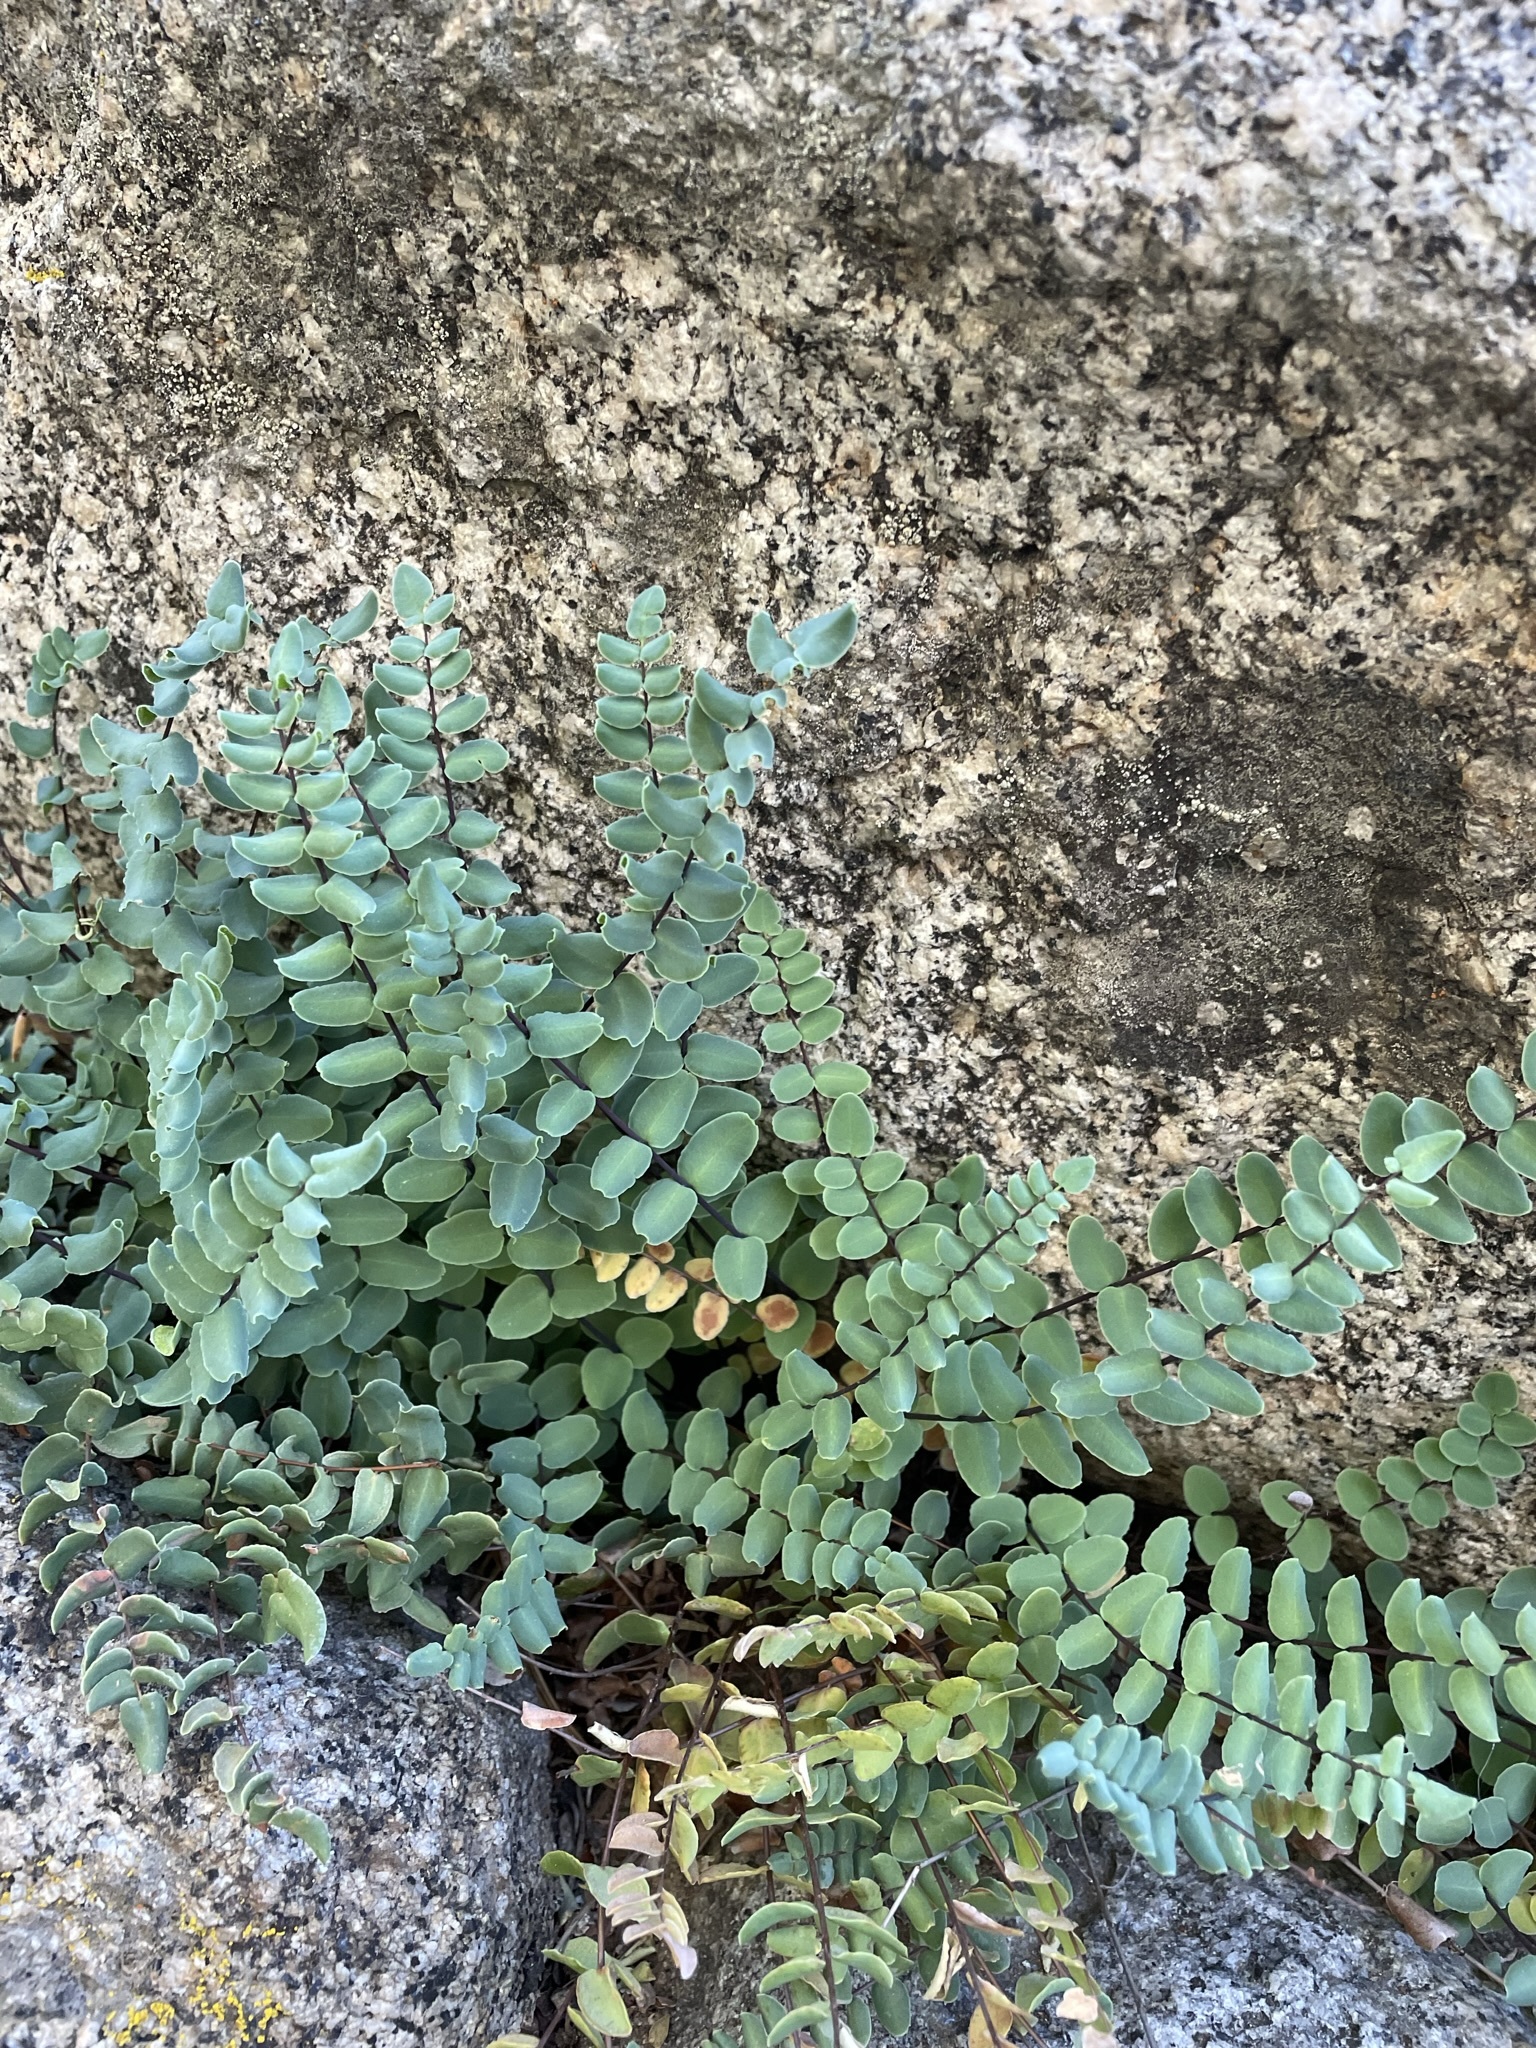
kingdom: Plantae
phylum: Tracheophyta
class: Polypodiopsida
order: Polypodiales
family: Pteridaceae
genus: Pellaea
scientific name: Pellaea bridgesii
